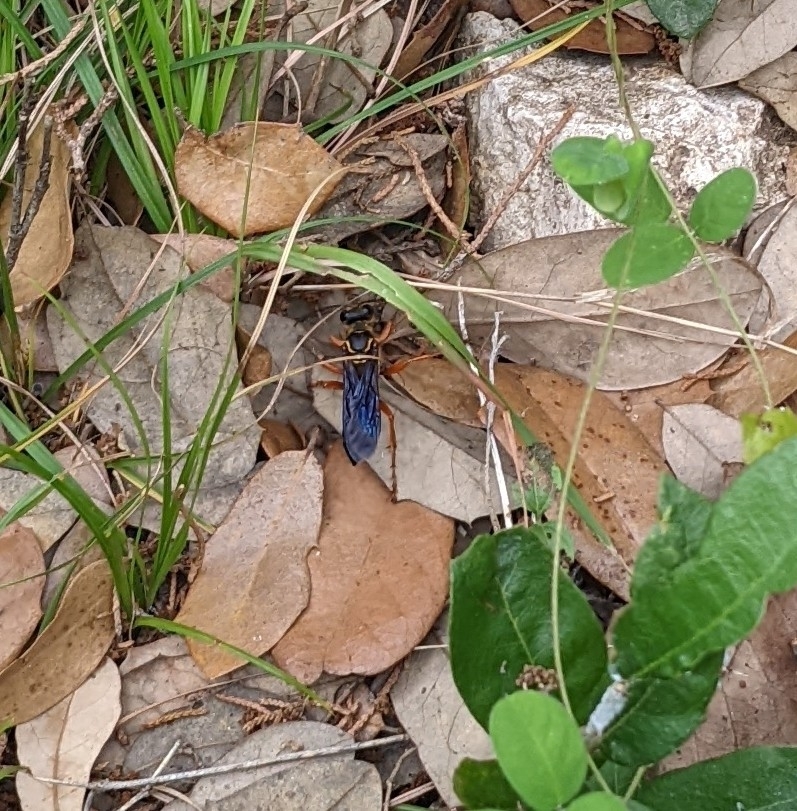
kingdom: Animalia
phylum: Arthropoda
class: Insecta
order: Hymenoptera
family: Sphecidae
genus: Sphex
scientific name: Sphex ichneumoneus
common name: Great golden digger wasp
